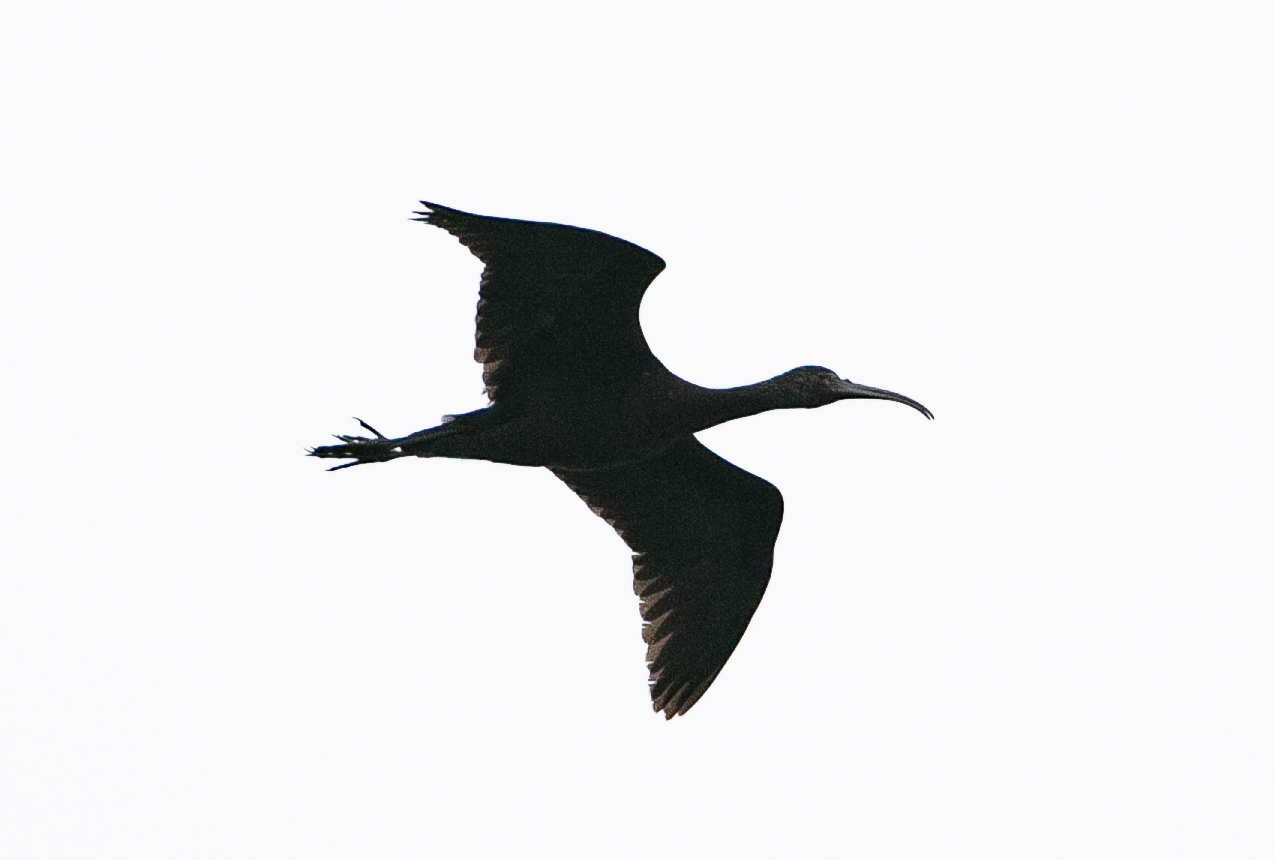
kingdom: Animalia
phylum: Chordata
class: Aves
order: Pelecaniformes
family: Threskiornithidae
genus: Plegadis
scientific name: Plegadis falcinellus
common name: Glossy ibis
